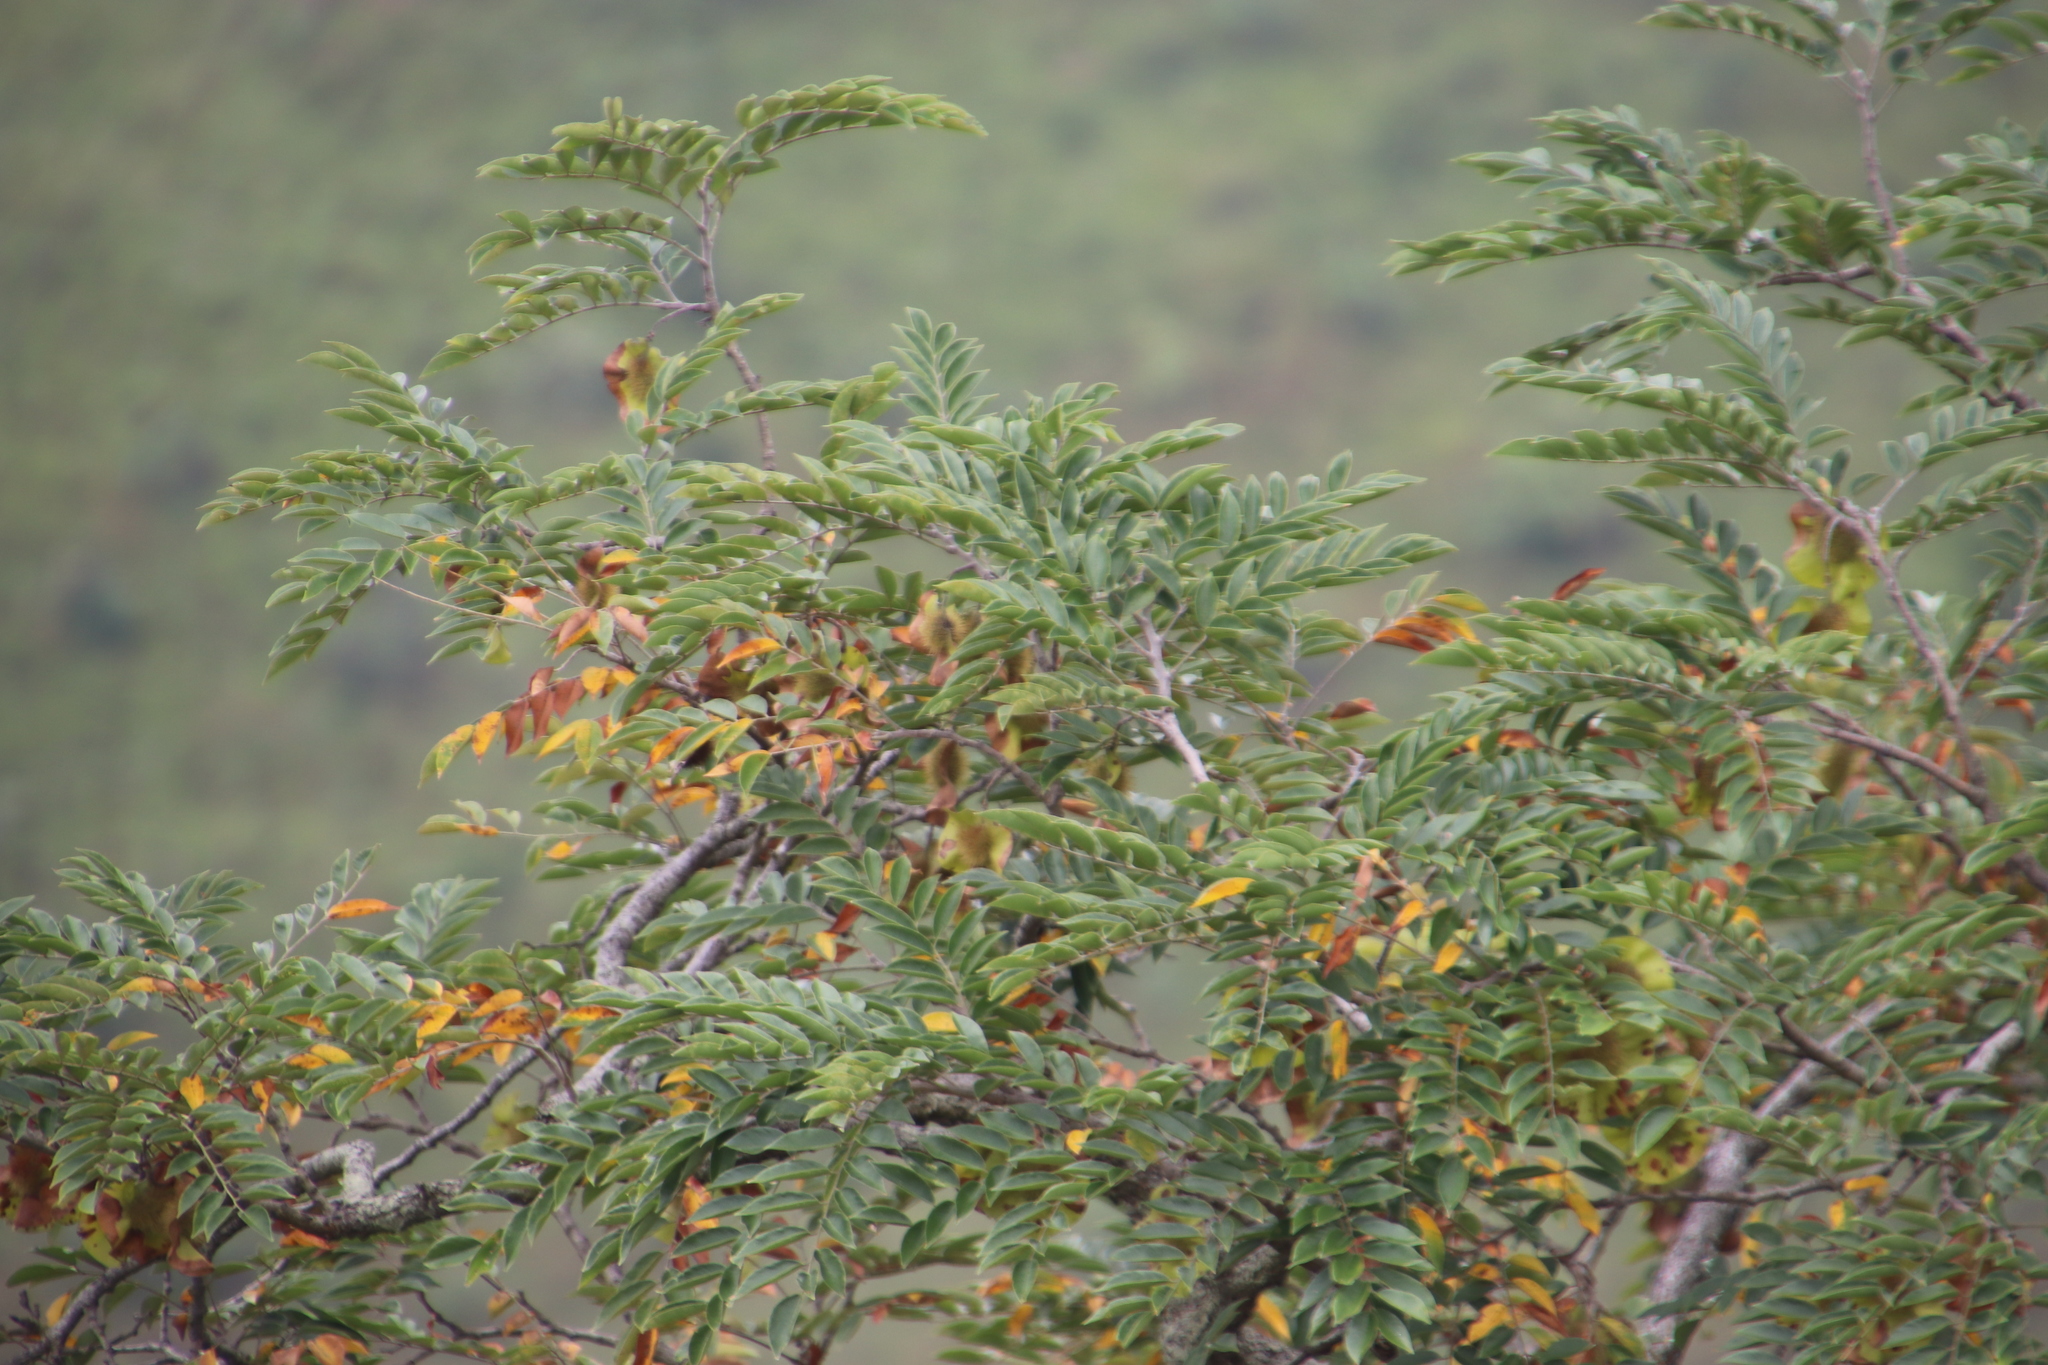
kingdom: Plantae
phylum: Tracheophyta
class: Magnoliopsida
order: Fabales
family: Fabaceae
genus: Pterocarpus
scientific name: Pterocarpus angolensis
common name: Bloodwood tree
